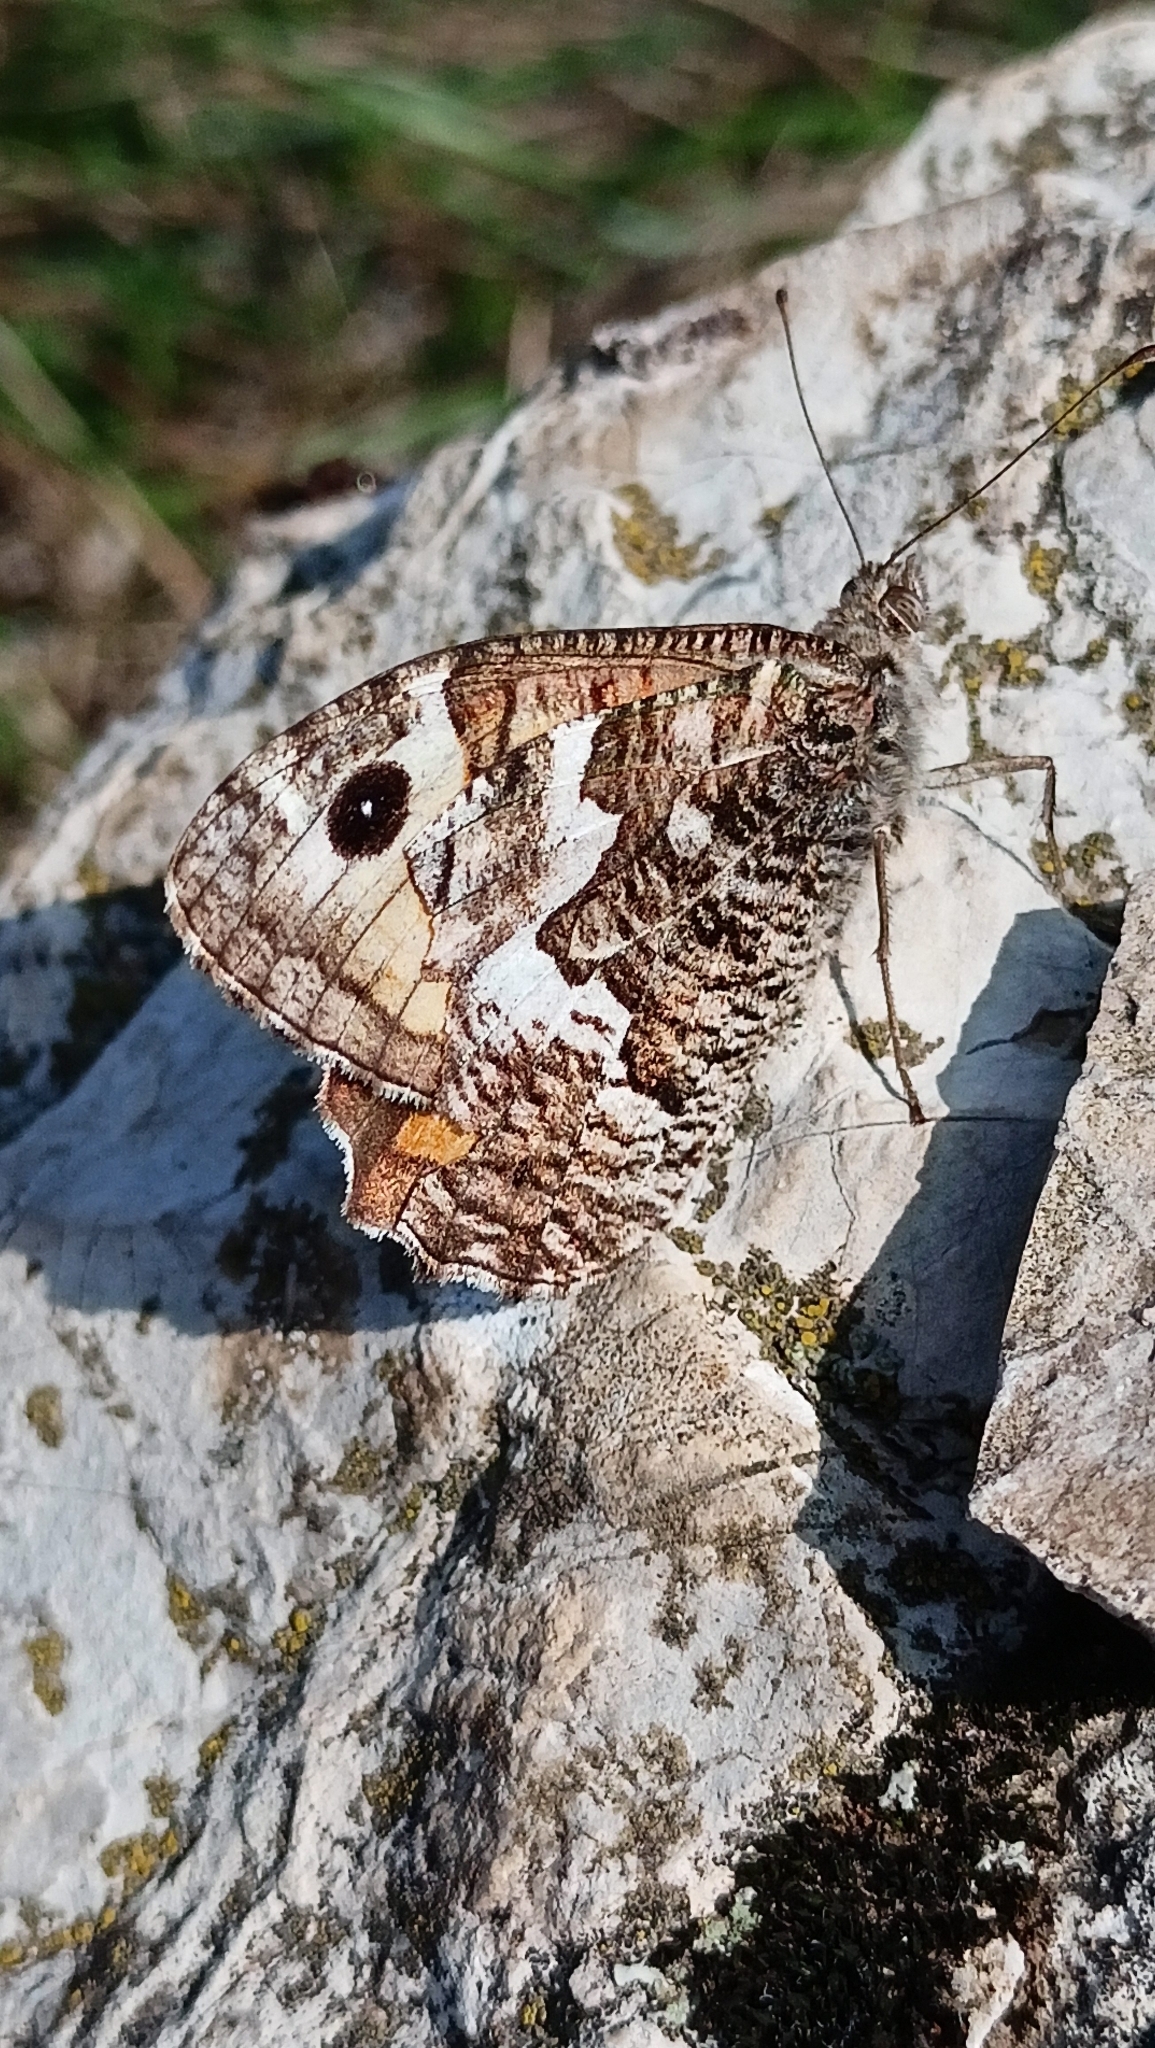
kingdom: Animalia
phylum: Arthropoda
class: Insecta
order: Lepidoptera
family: Nymphalidae
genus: Hipparchia
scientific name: Hipparchia semele
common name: Grayling
